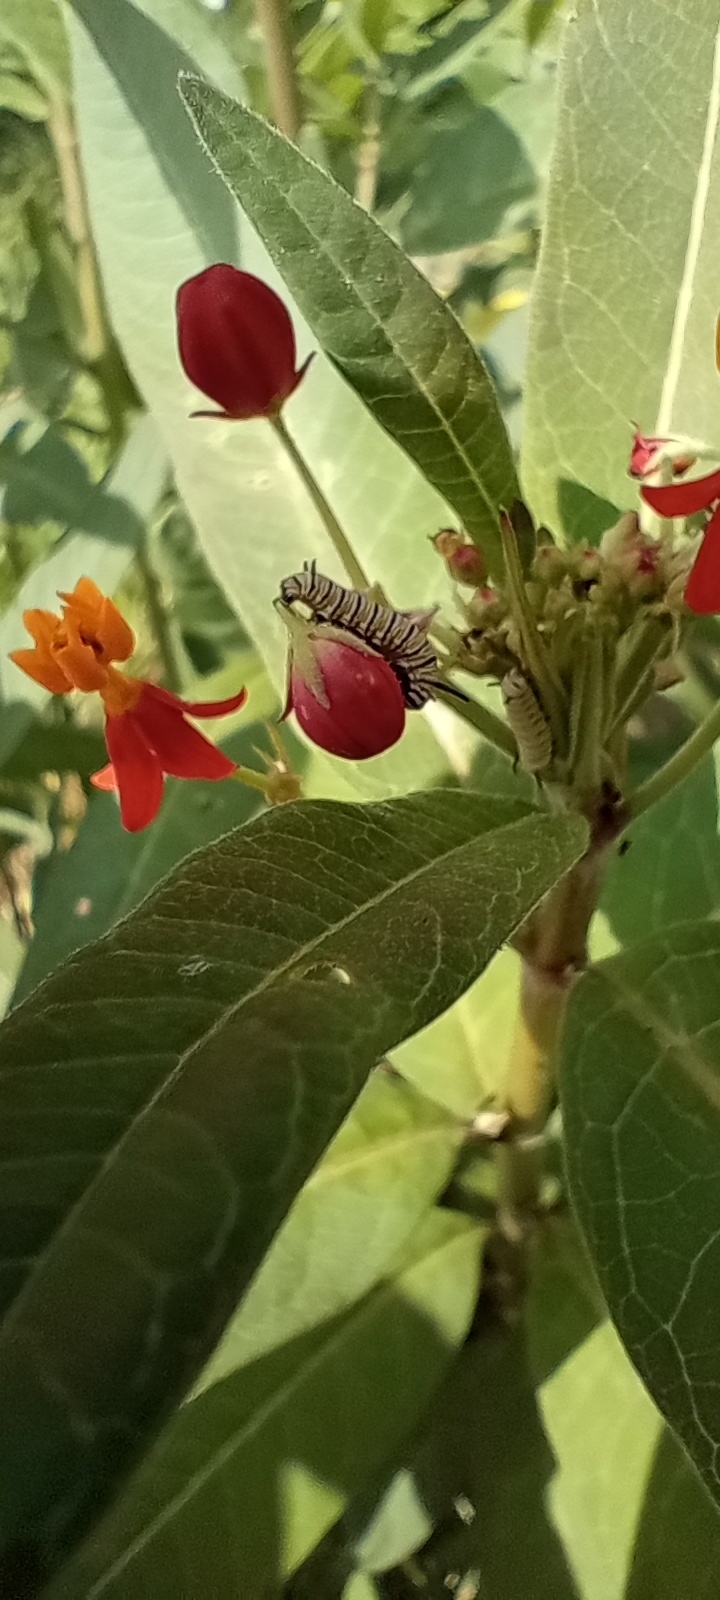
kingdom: Animalia
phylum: Arthropoda
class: Insecta
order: Lepidoptera
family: Nymphalidae
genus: Danaus
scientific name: Danaus plexippus
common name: Monarch
